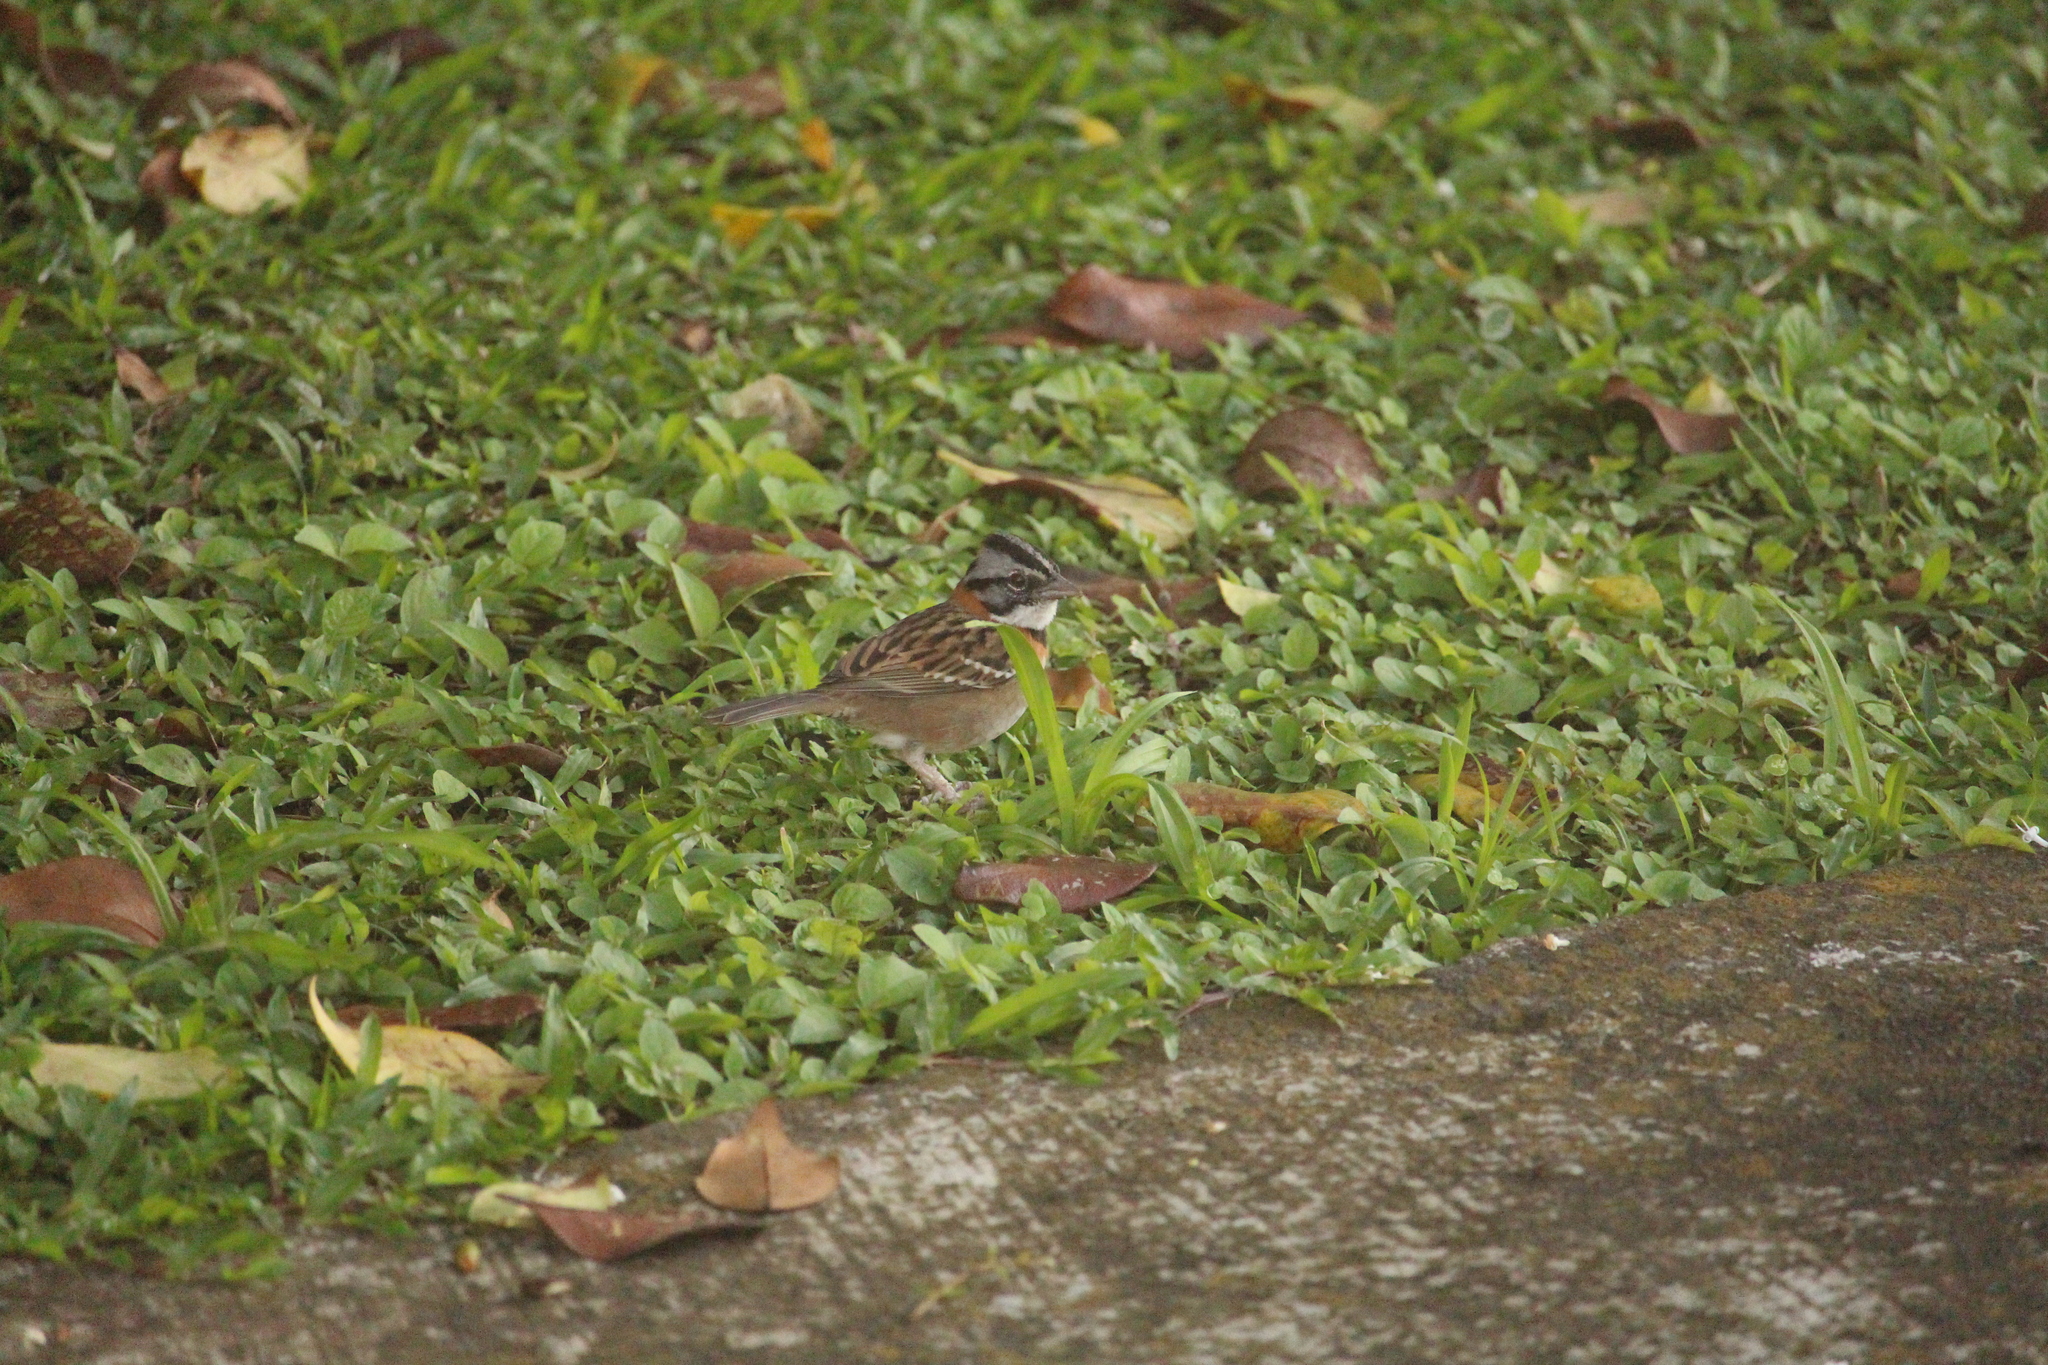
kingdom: Animalia
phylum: Chordata
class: Aves
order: Passeriformes
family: Passerellidae
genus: Zonotrichia
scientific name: Zonotrichia capensis
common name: Rufous-collared sparrow
